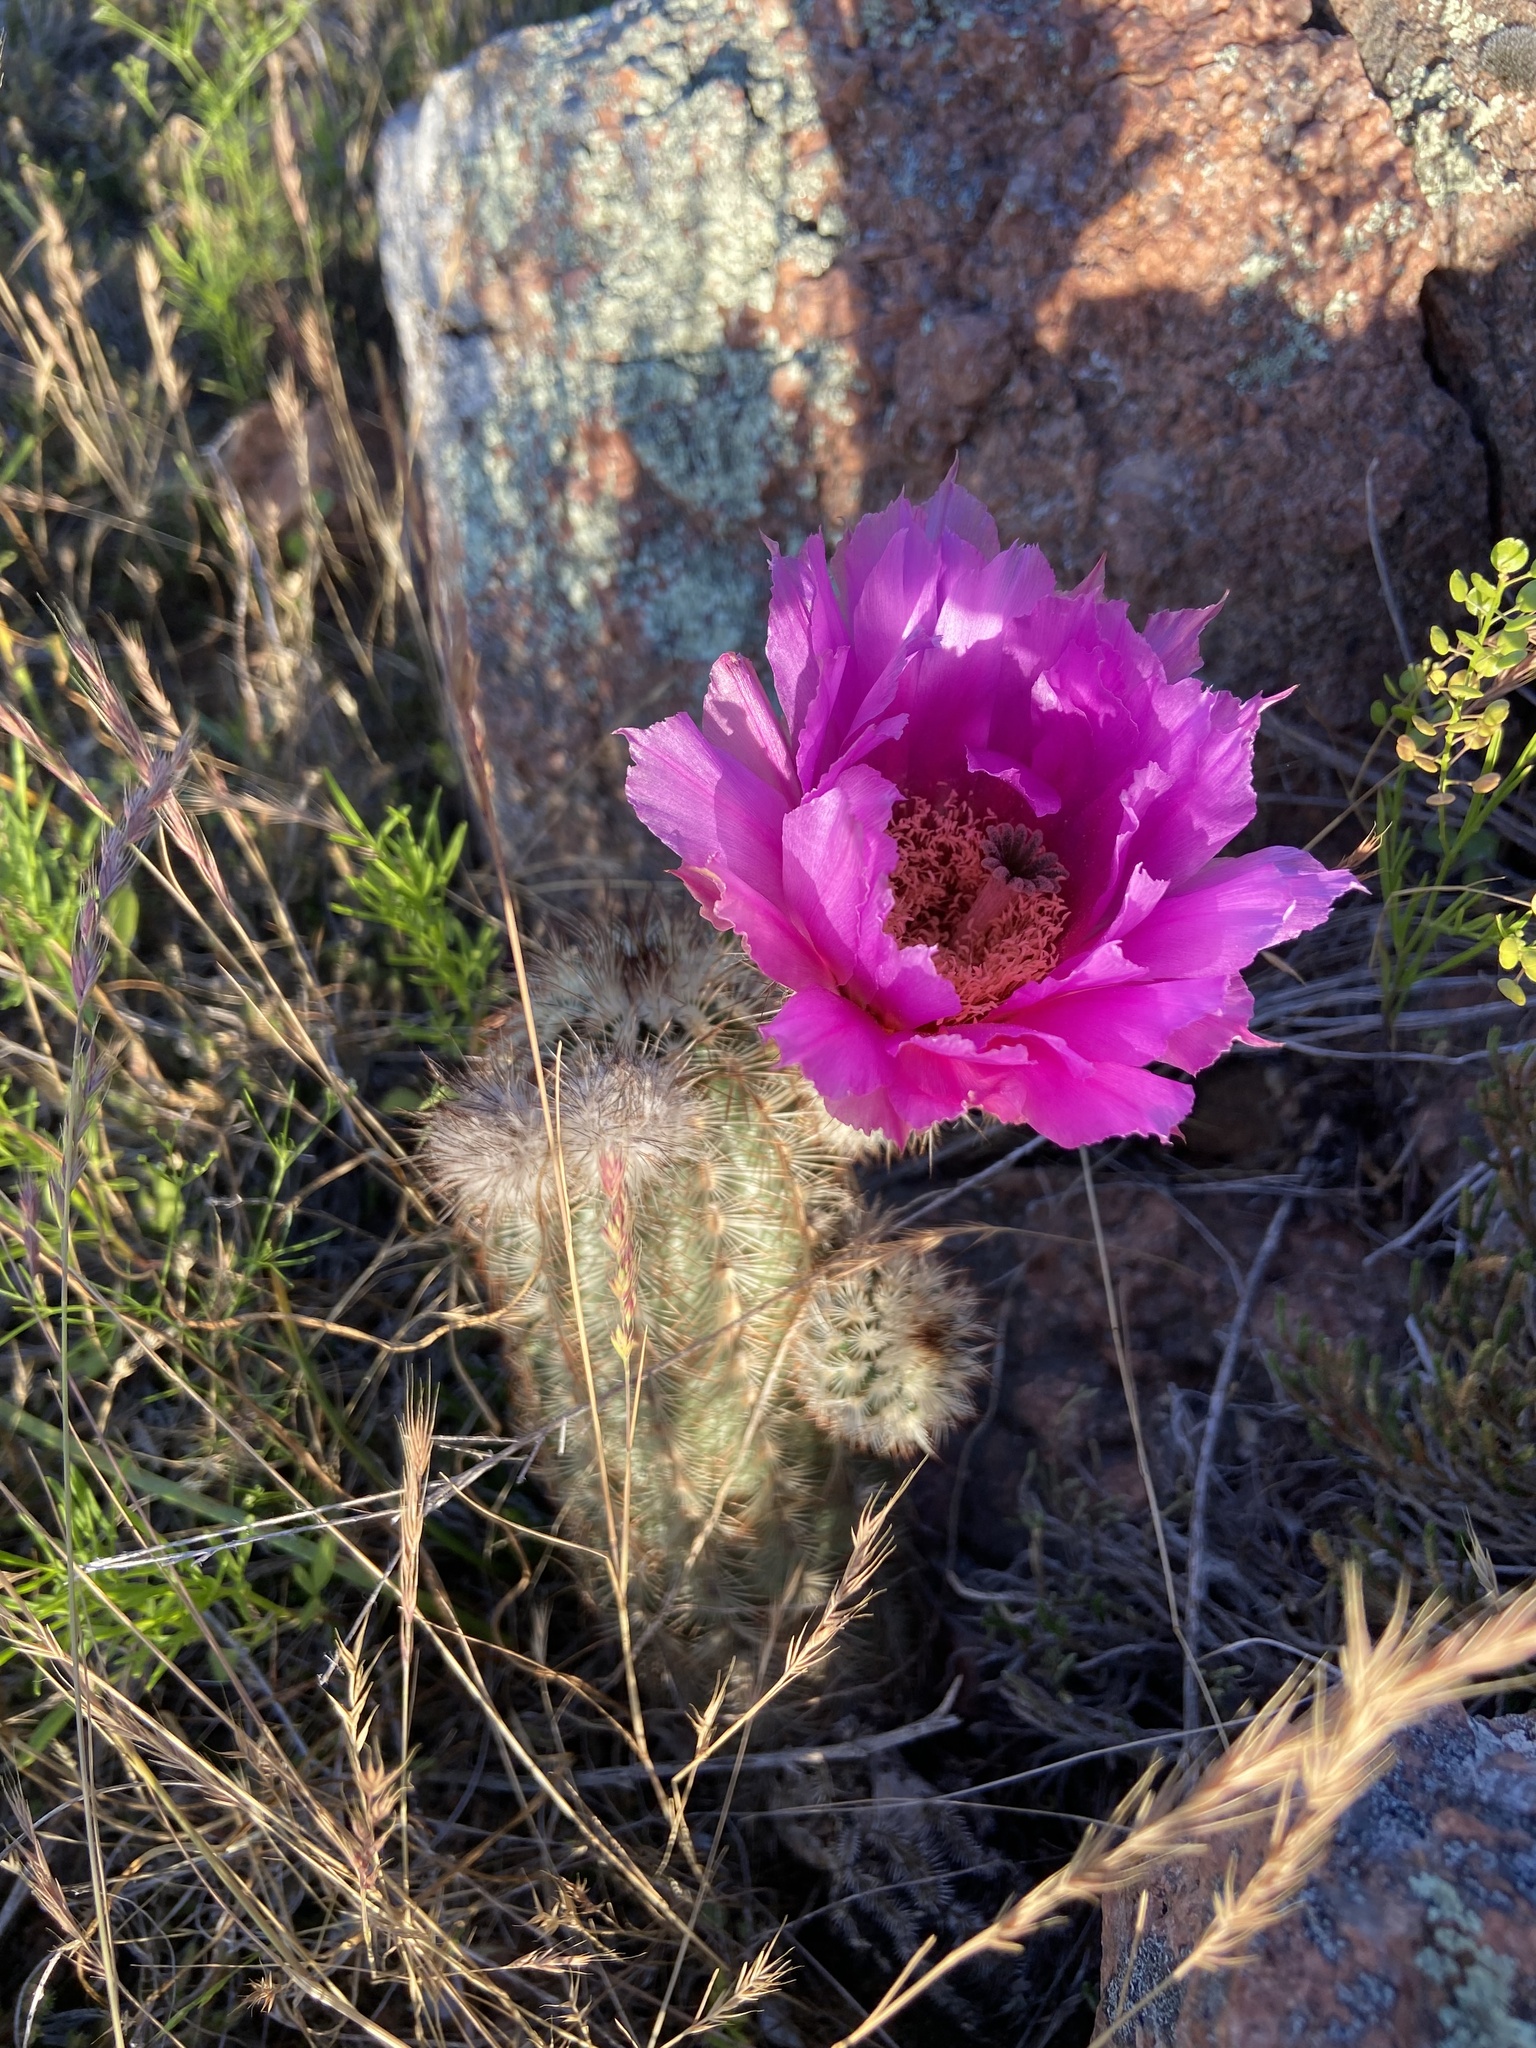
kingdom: Plantae
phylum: Tracheophyta
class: Magnoliopsida
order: Caryophyllales
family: Cactaceae
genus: Echinocereus
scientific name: Echinocereus reichenbachii
